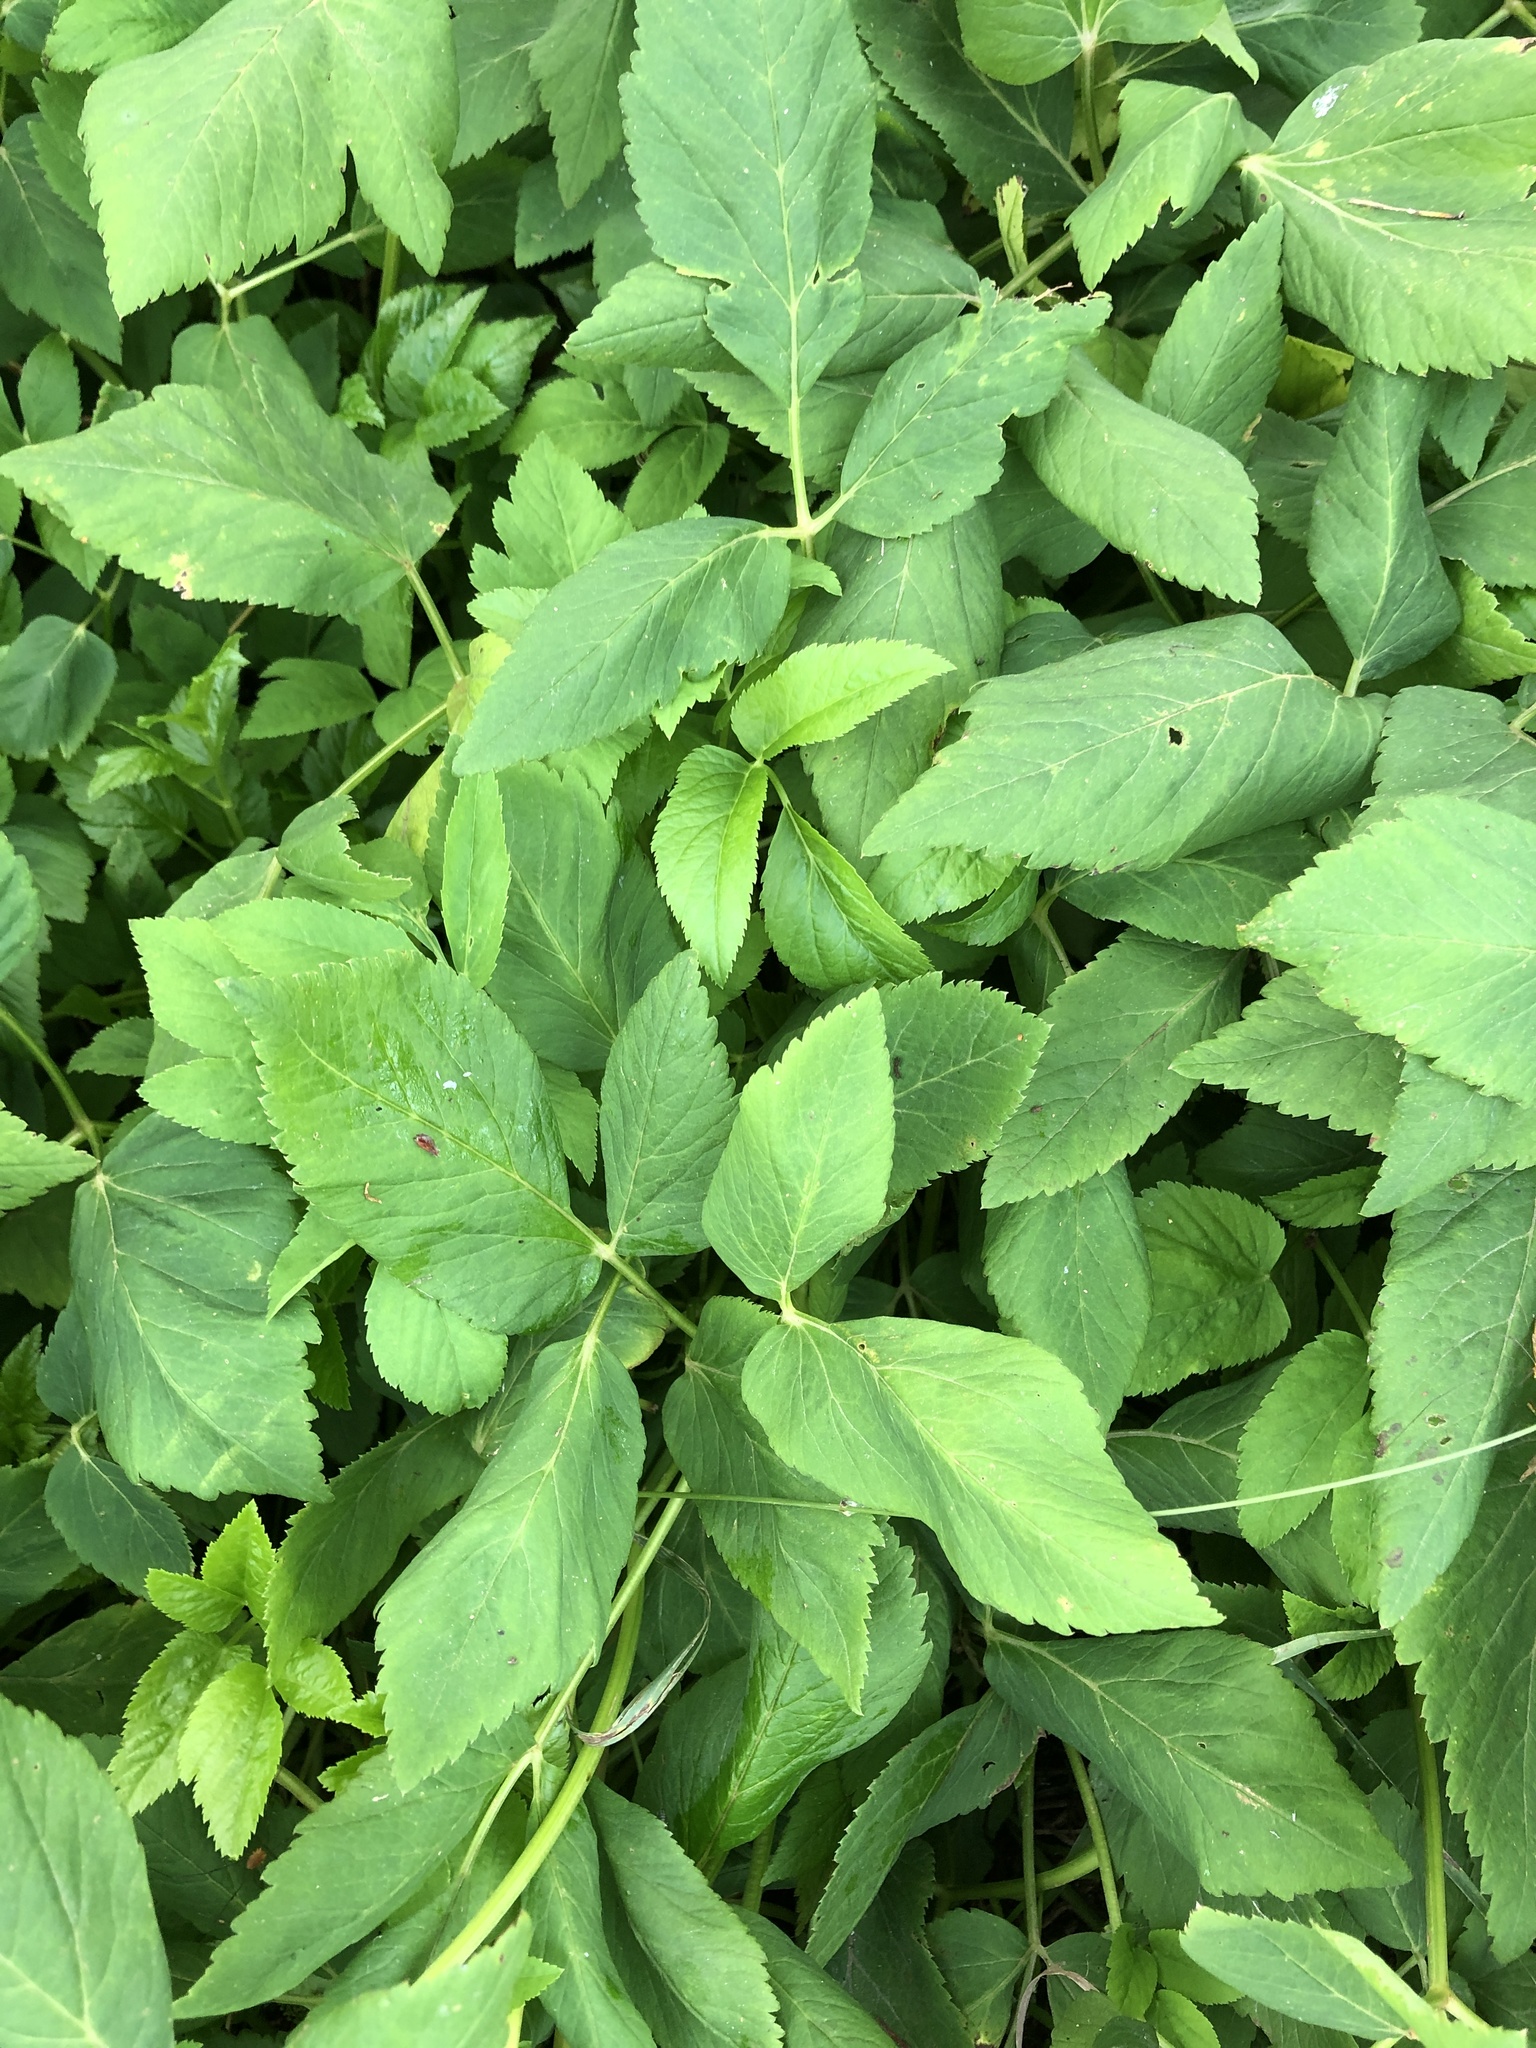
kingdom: Plantae
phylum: Tracheophyta
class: Magnoliopsida
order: Apiales
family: Apiaceae
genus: Aegopodium
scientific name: Aegopodium podagraria
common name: Ground-elder
